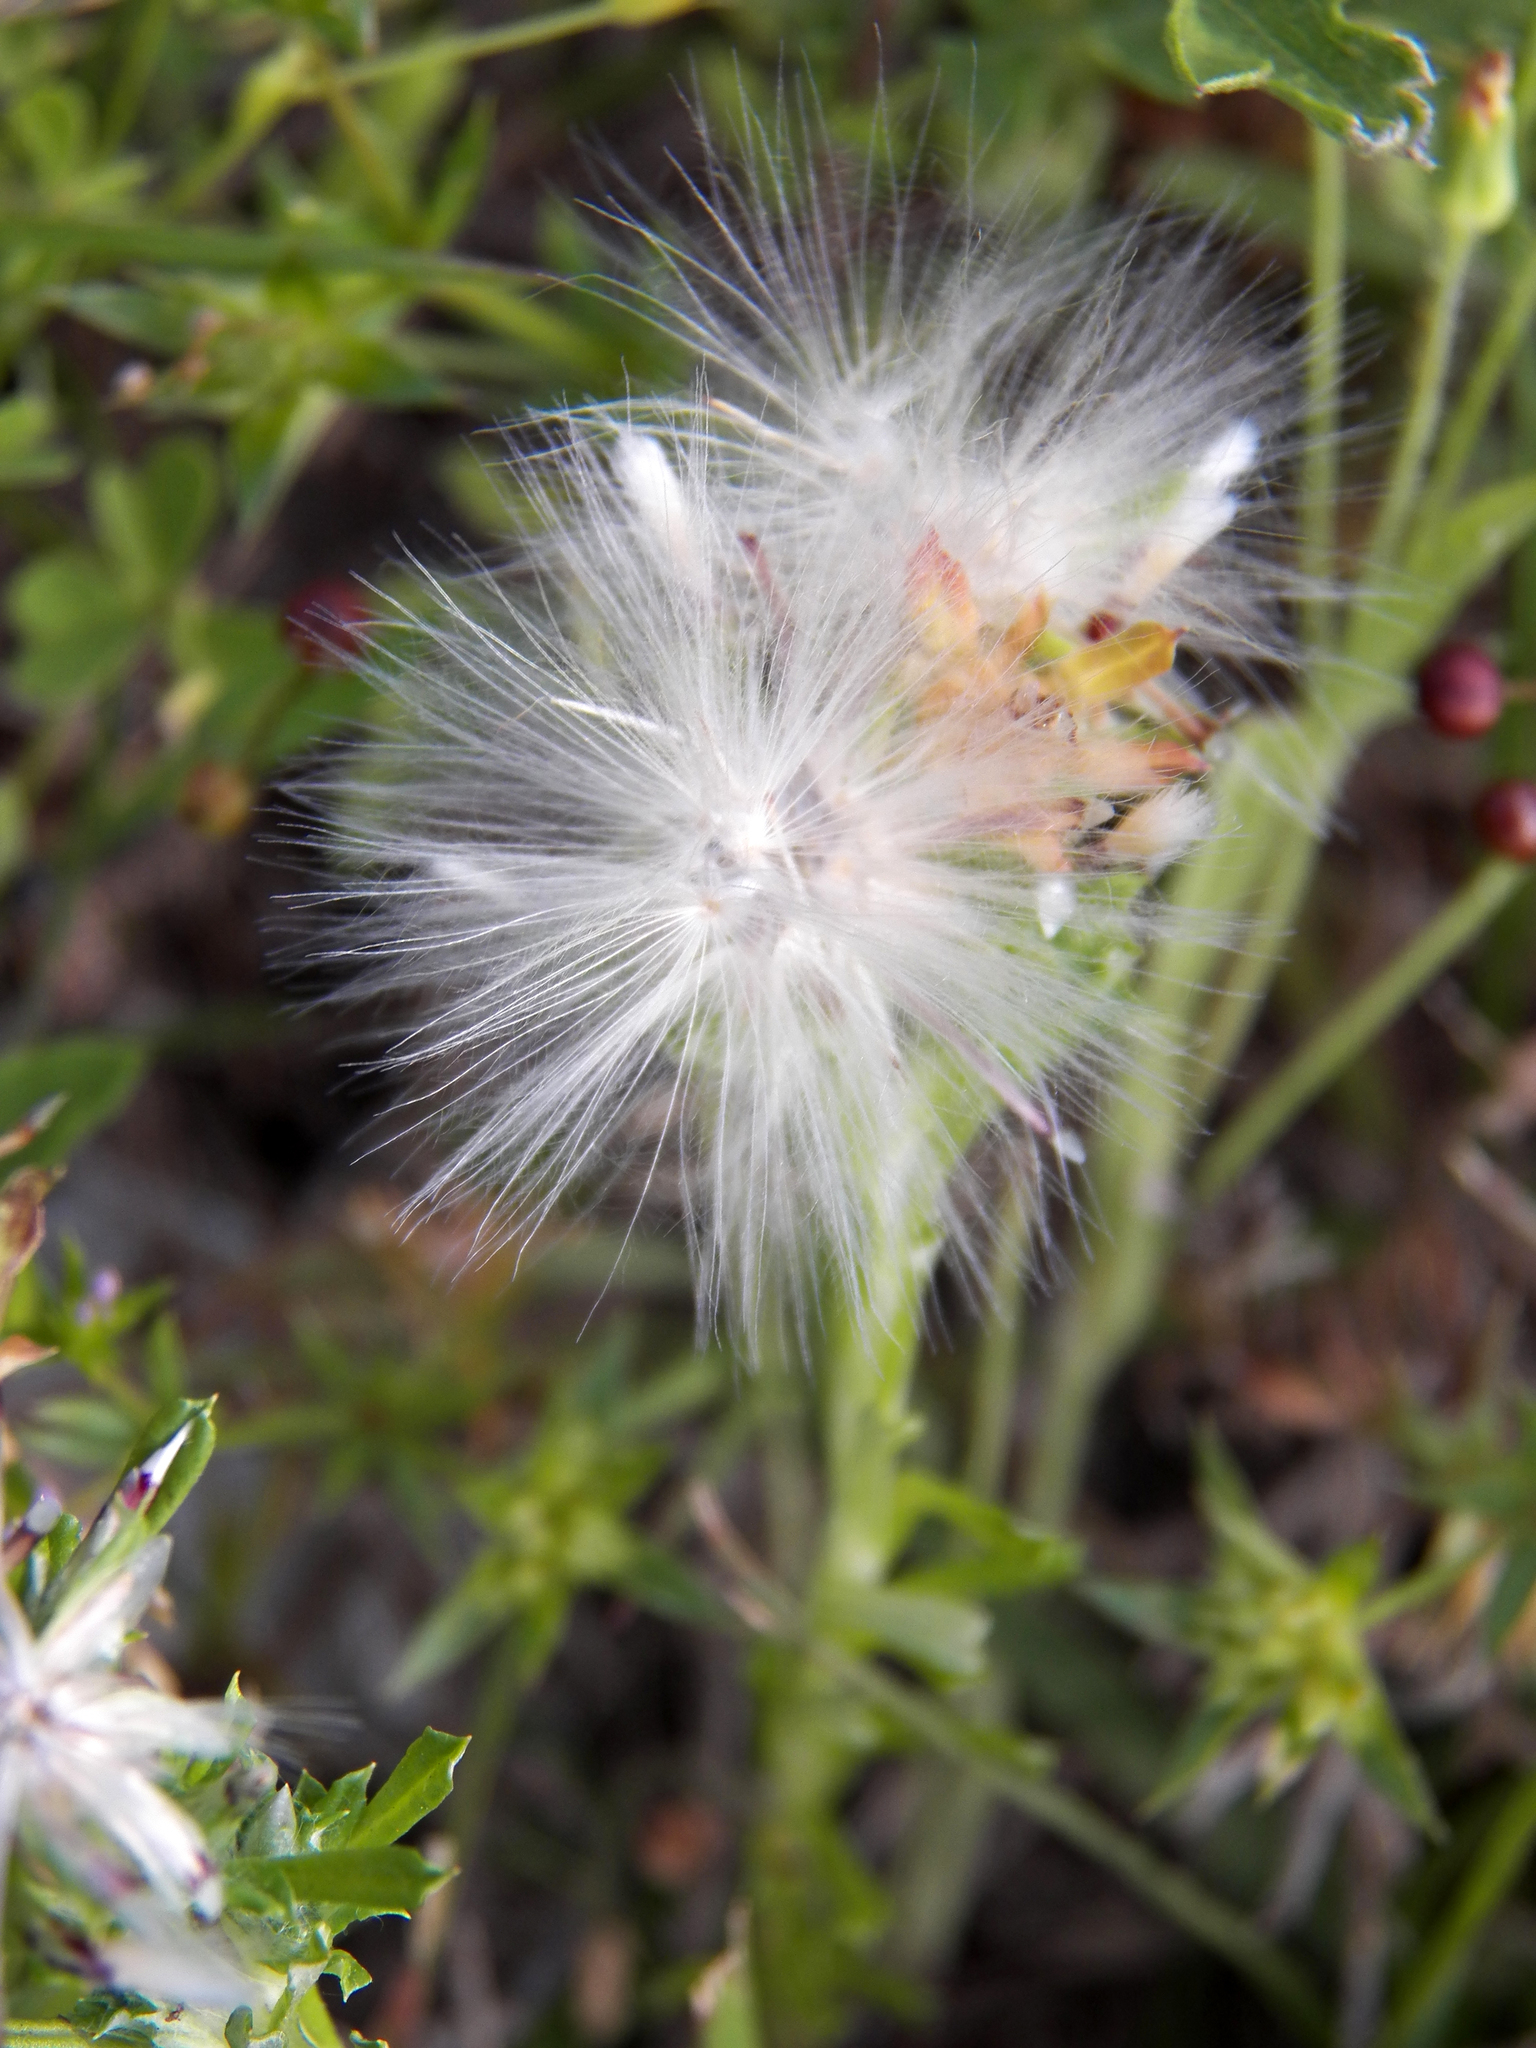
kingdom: Plantae
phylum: Tracheophyta
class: Magnoliopsida
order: Asterales
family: Asteraceae
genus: Facelis
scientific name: Facelis retusa
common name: Annual trampweed
